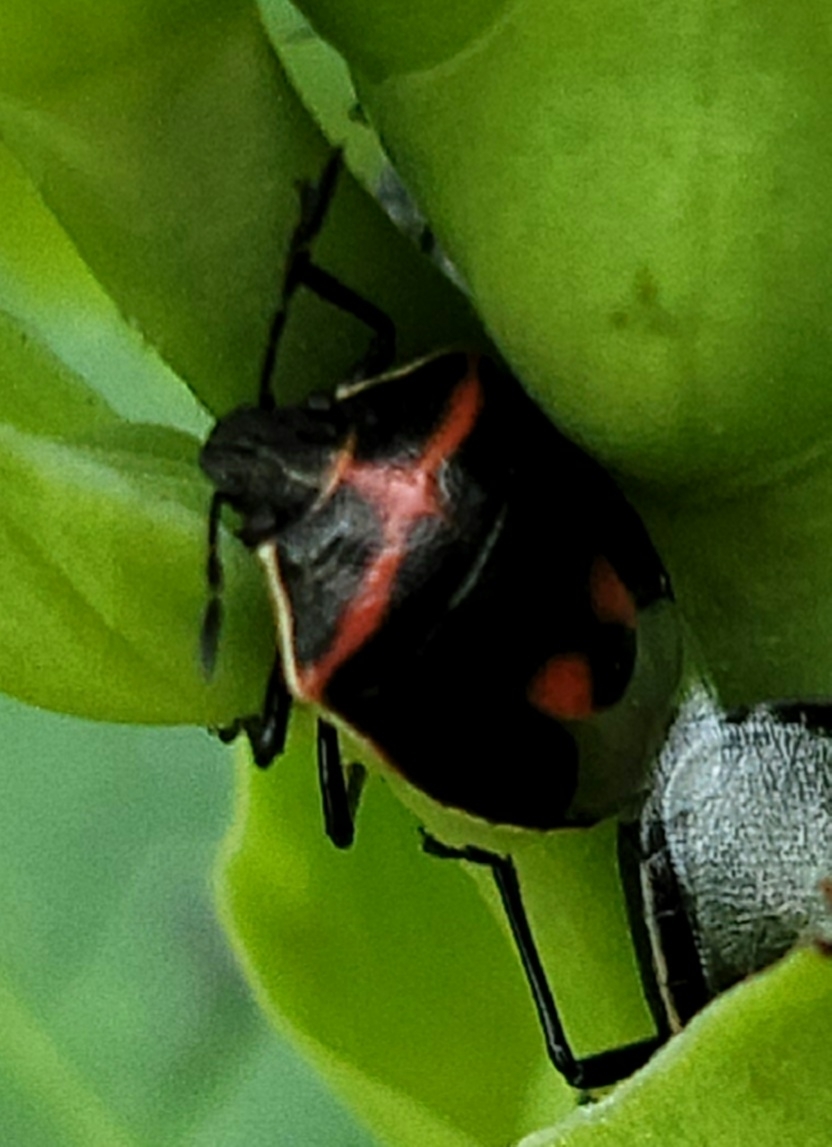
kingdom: Animalia
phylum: Arthropoda
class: Insecta
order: Hemiptera
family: Pentatomidae
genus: Cosmopepla
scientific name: Cosmopepla lintneriana
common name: Twice-stabbed stink bug
